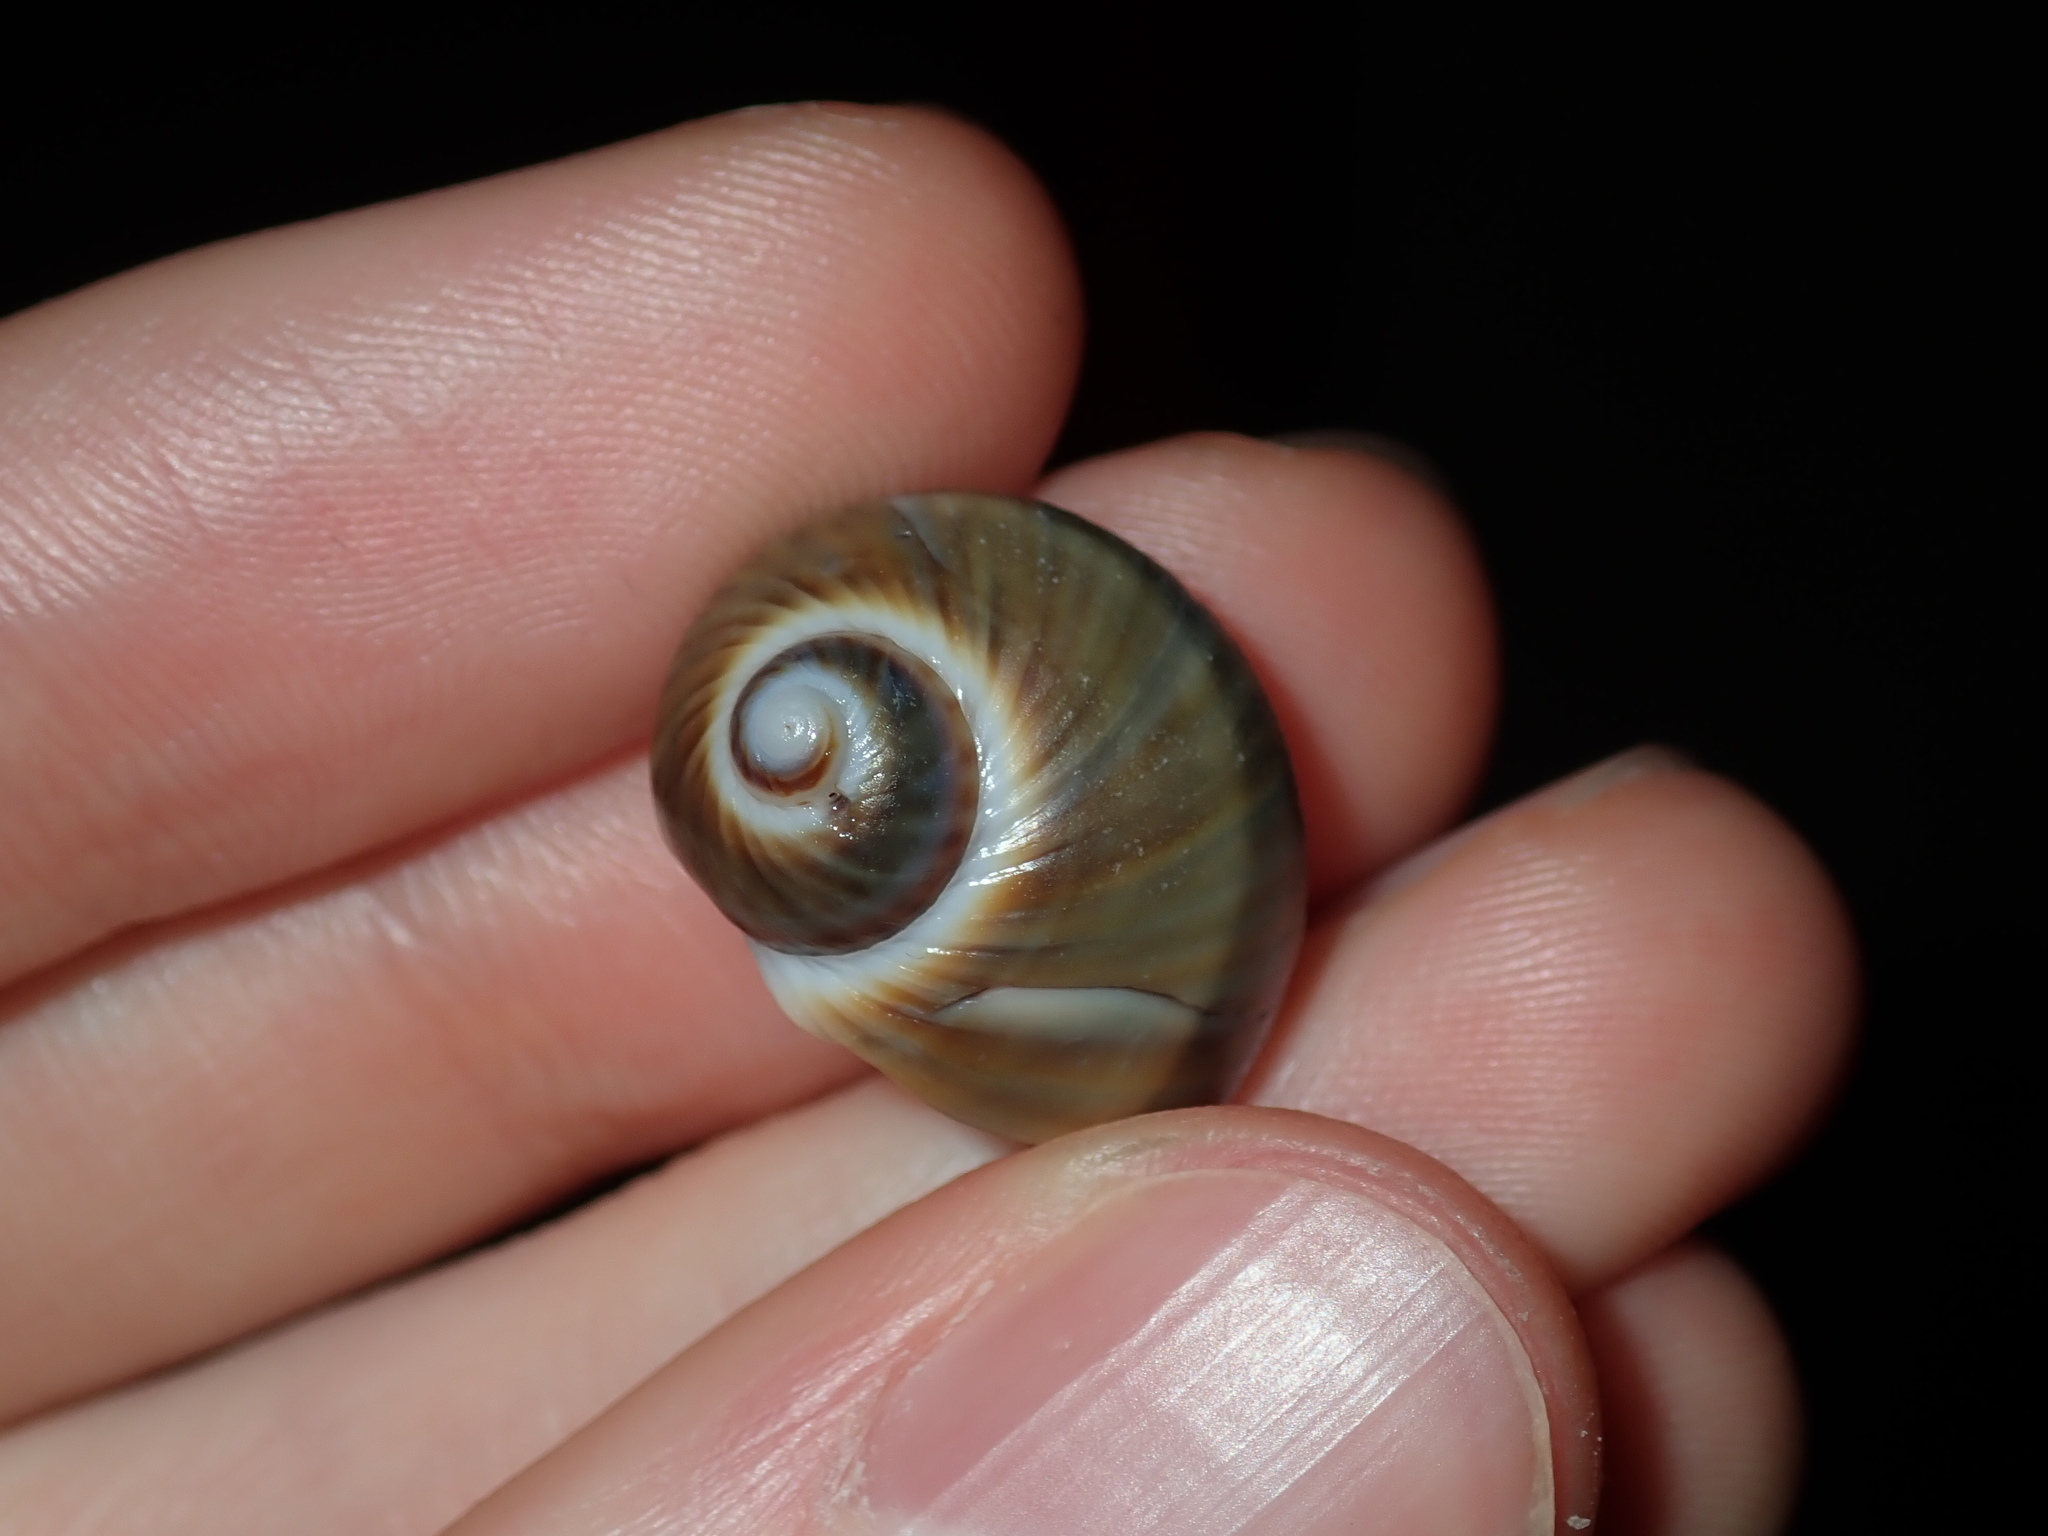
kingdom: Animalia
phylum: Mollusca
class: Gastropoda
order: Littorinimorpha
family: Naticidae
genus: Notocochlis
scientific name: Notocochlis gualteriana
